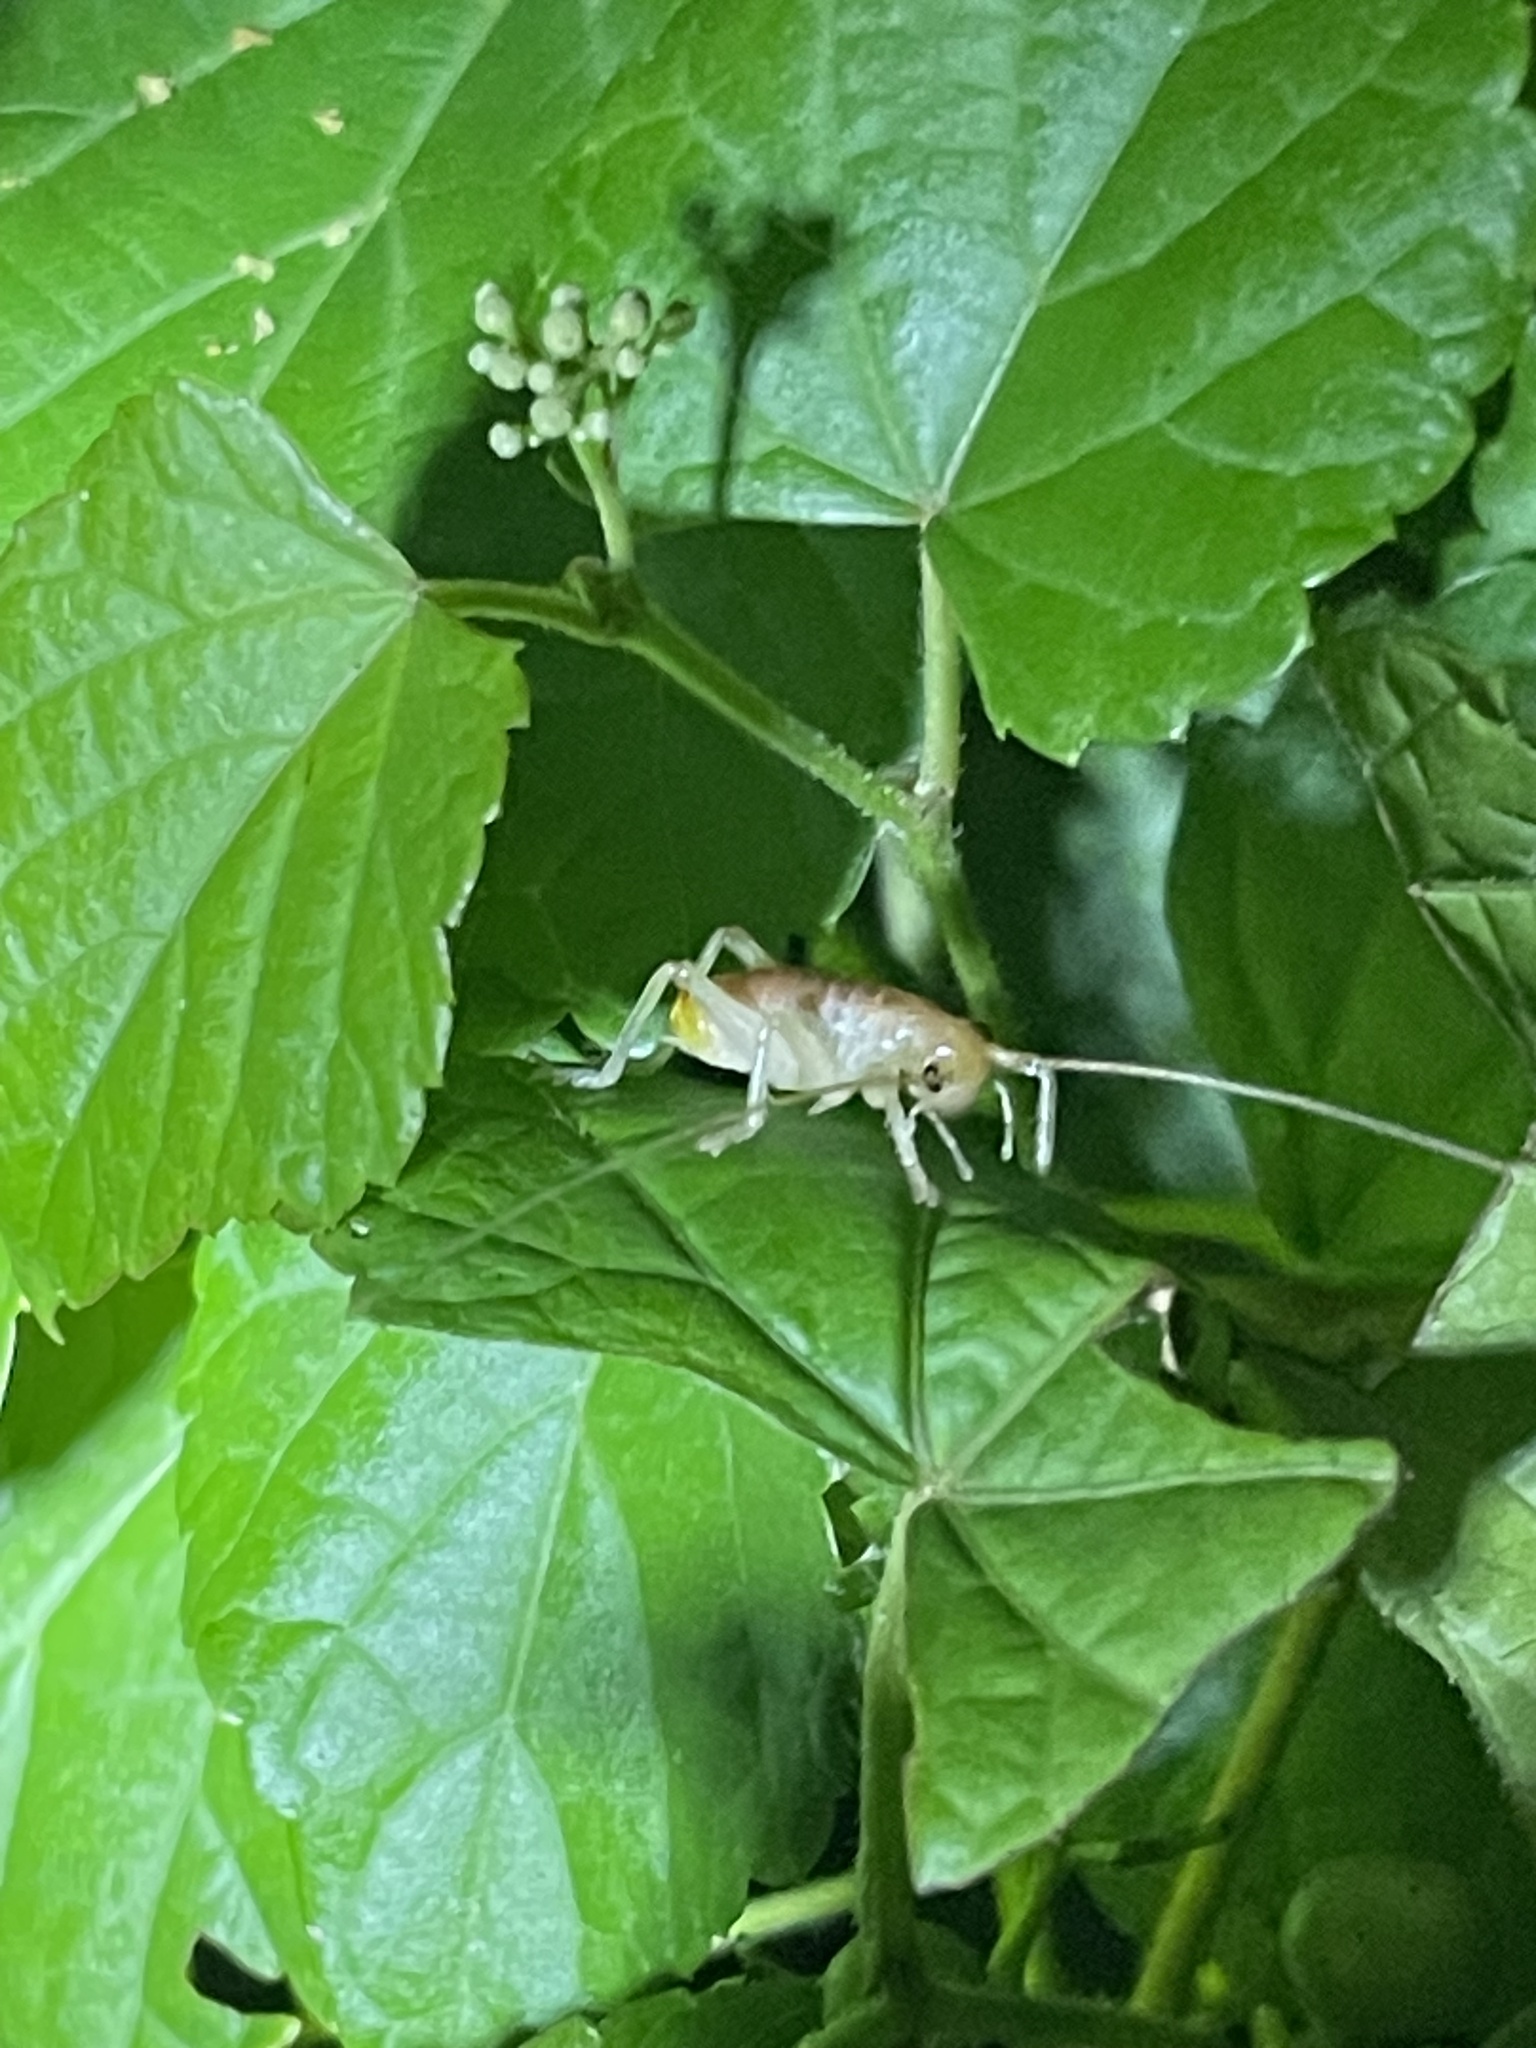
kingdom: Animalia
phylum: Arthropoda
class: Insecta
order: Orthoptera
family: Gryllacrididae
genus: Camptonotus
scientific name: Camptonotus carolinensis
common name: Carolina leaf-roller
